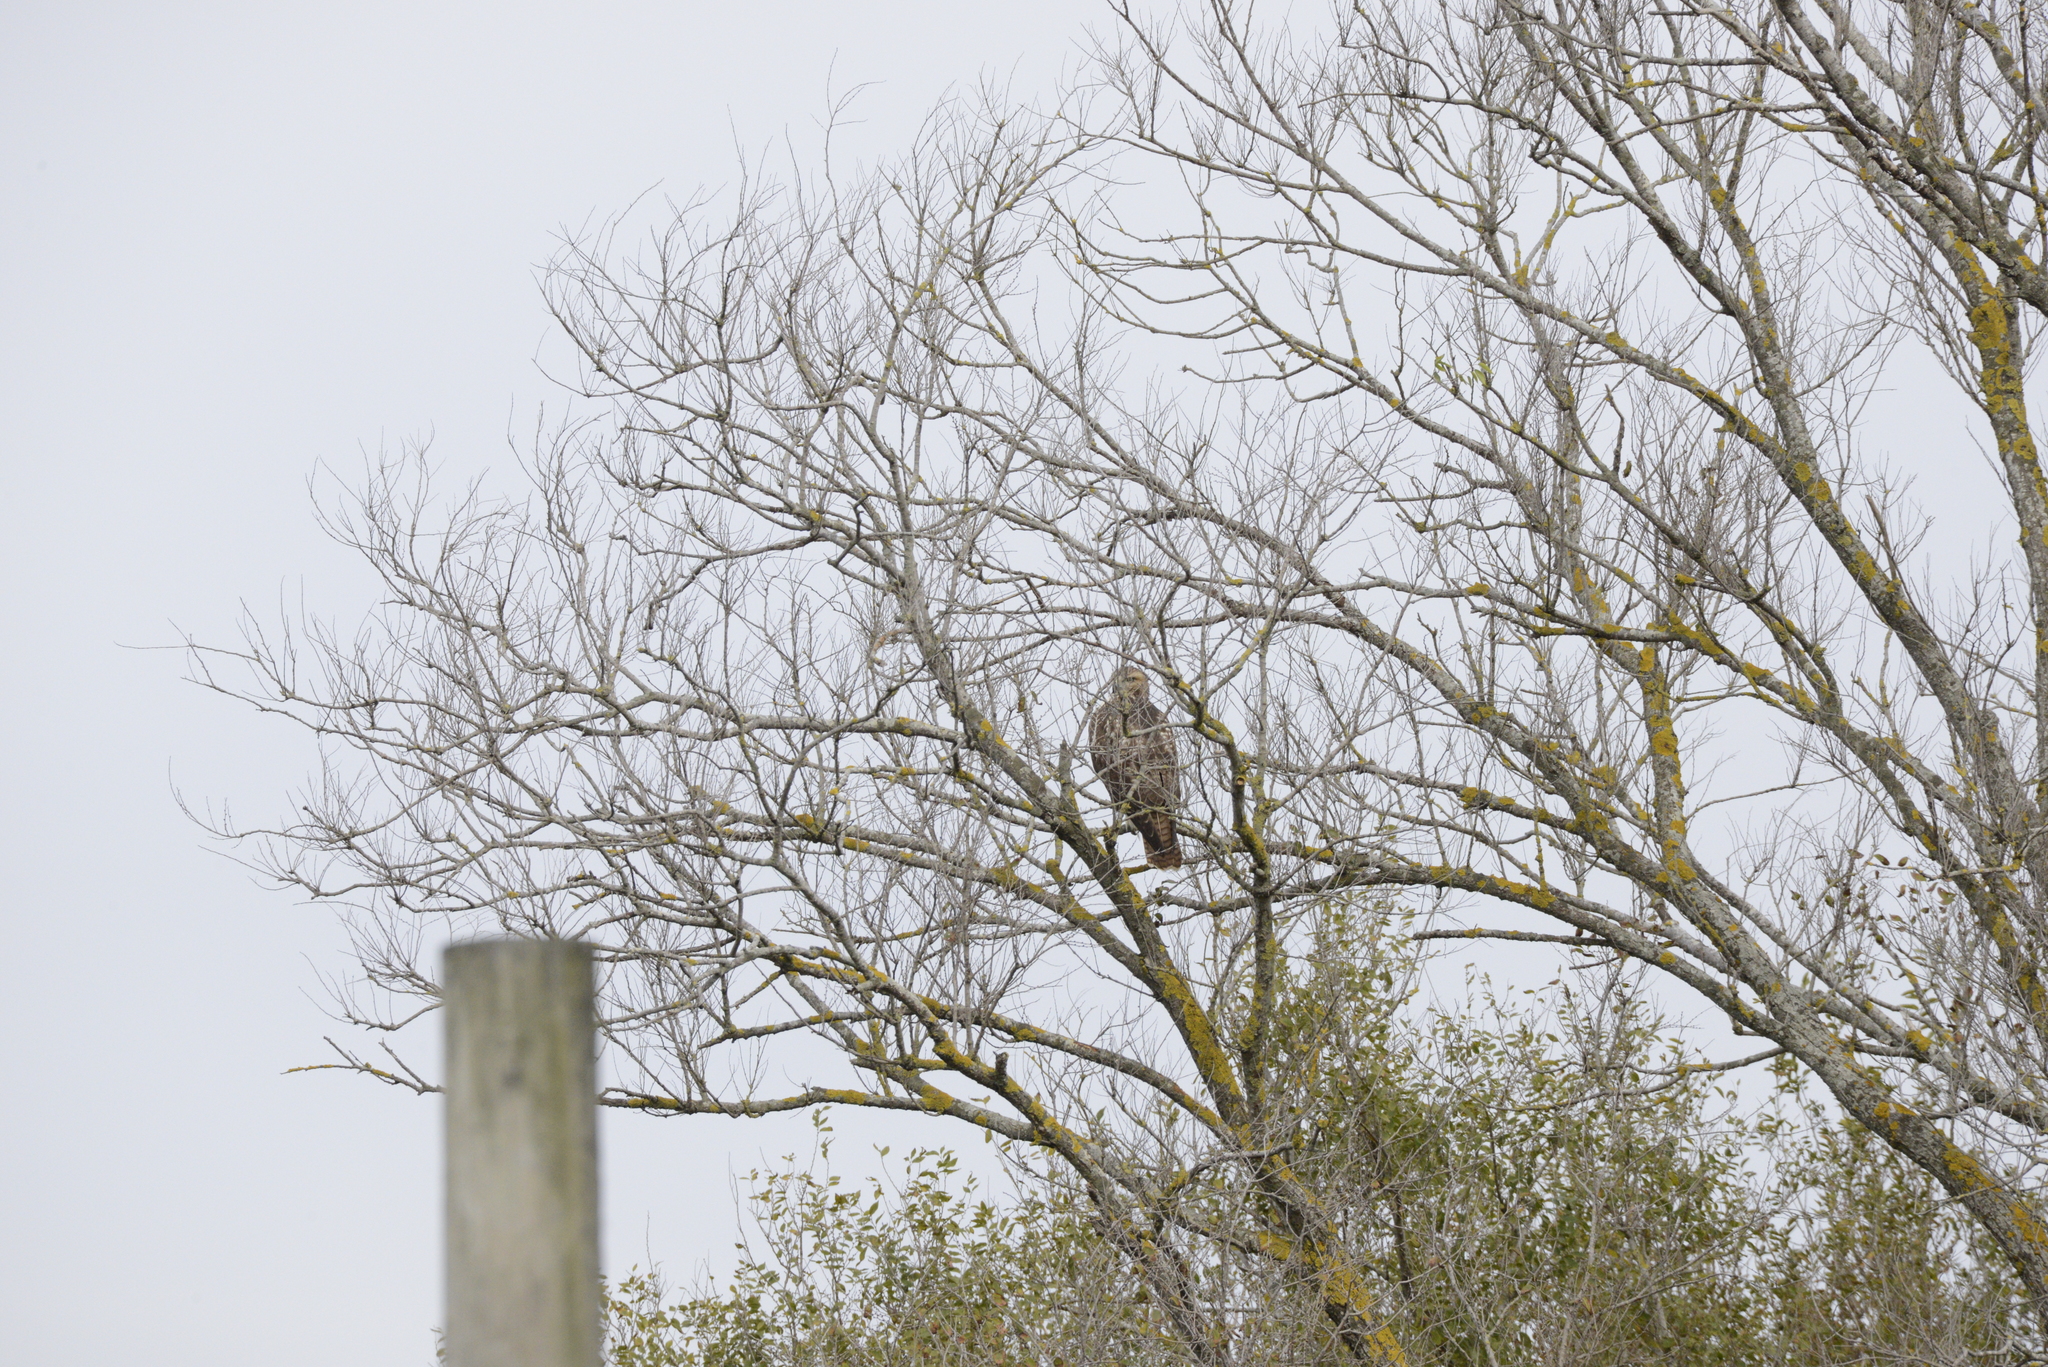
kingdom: Animalia
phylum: Chordata
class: Aves
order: Accipitriformes
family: Accipitridae
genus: Buteo
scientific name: Buteo jamaicensis
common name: Red-tailed hawk
